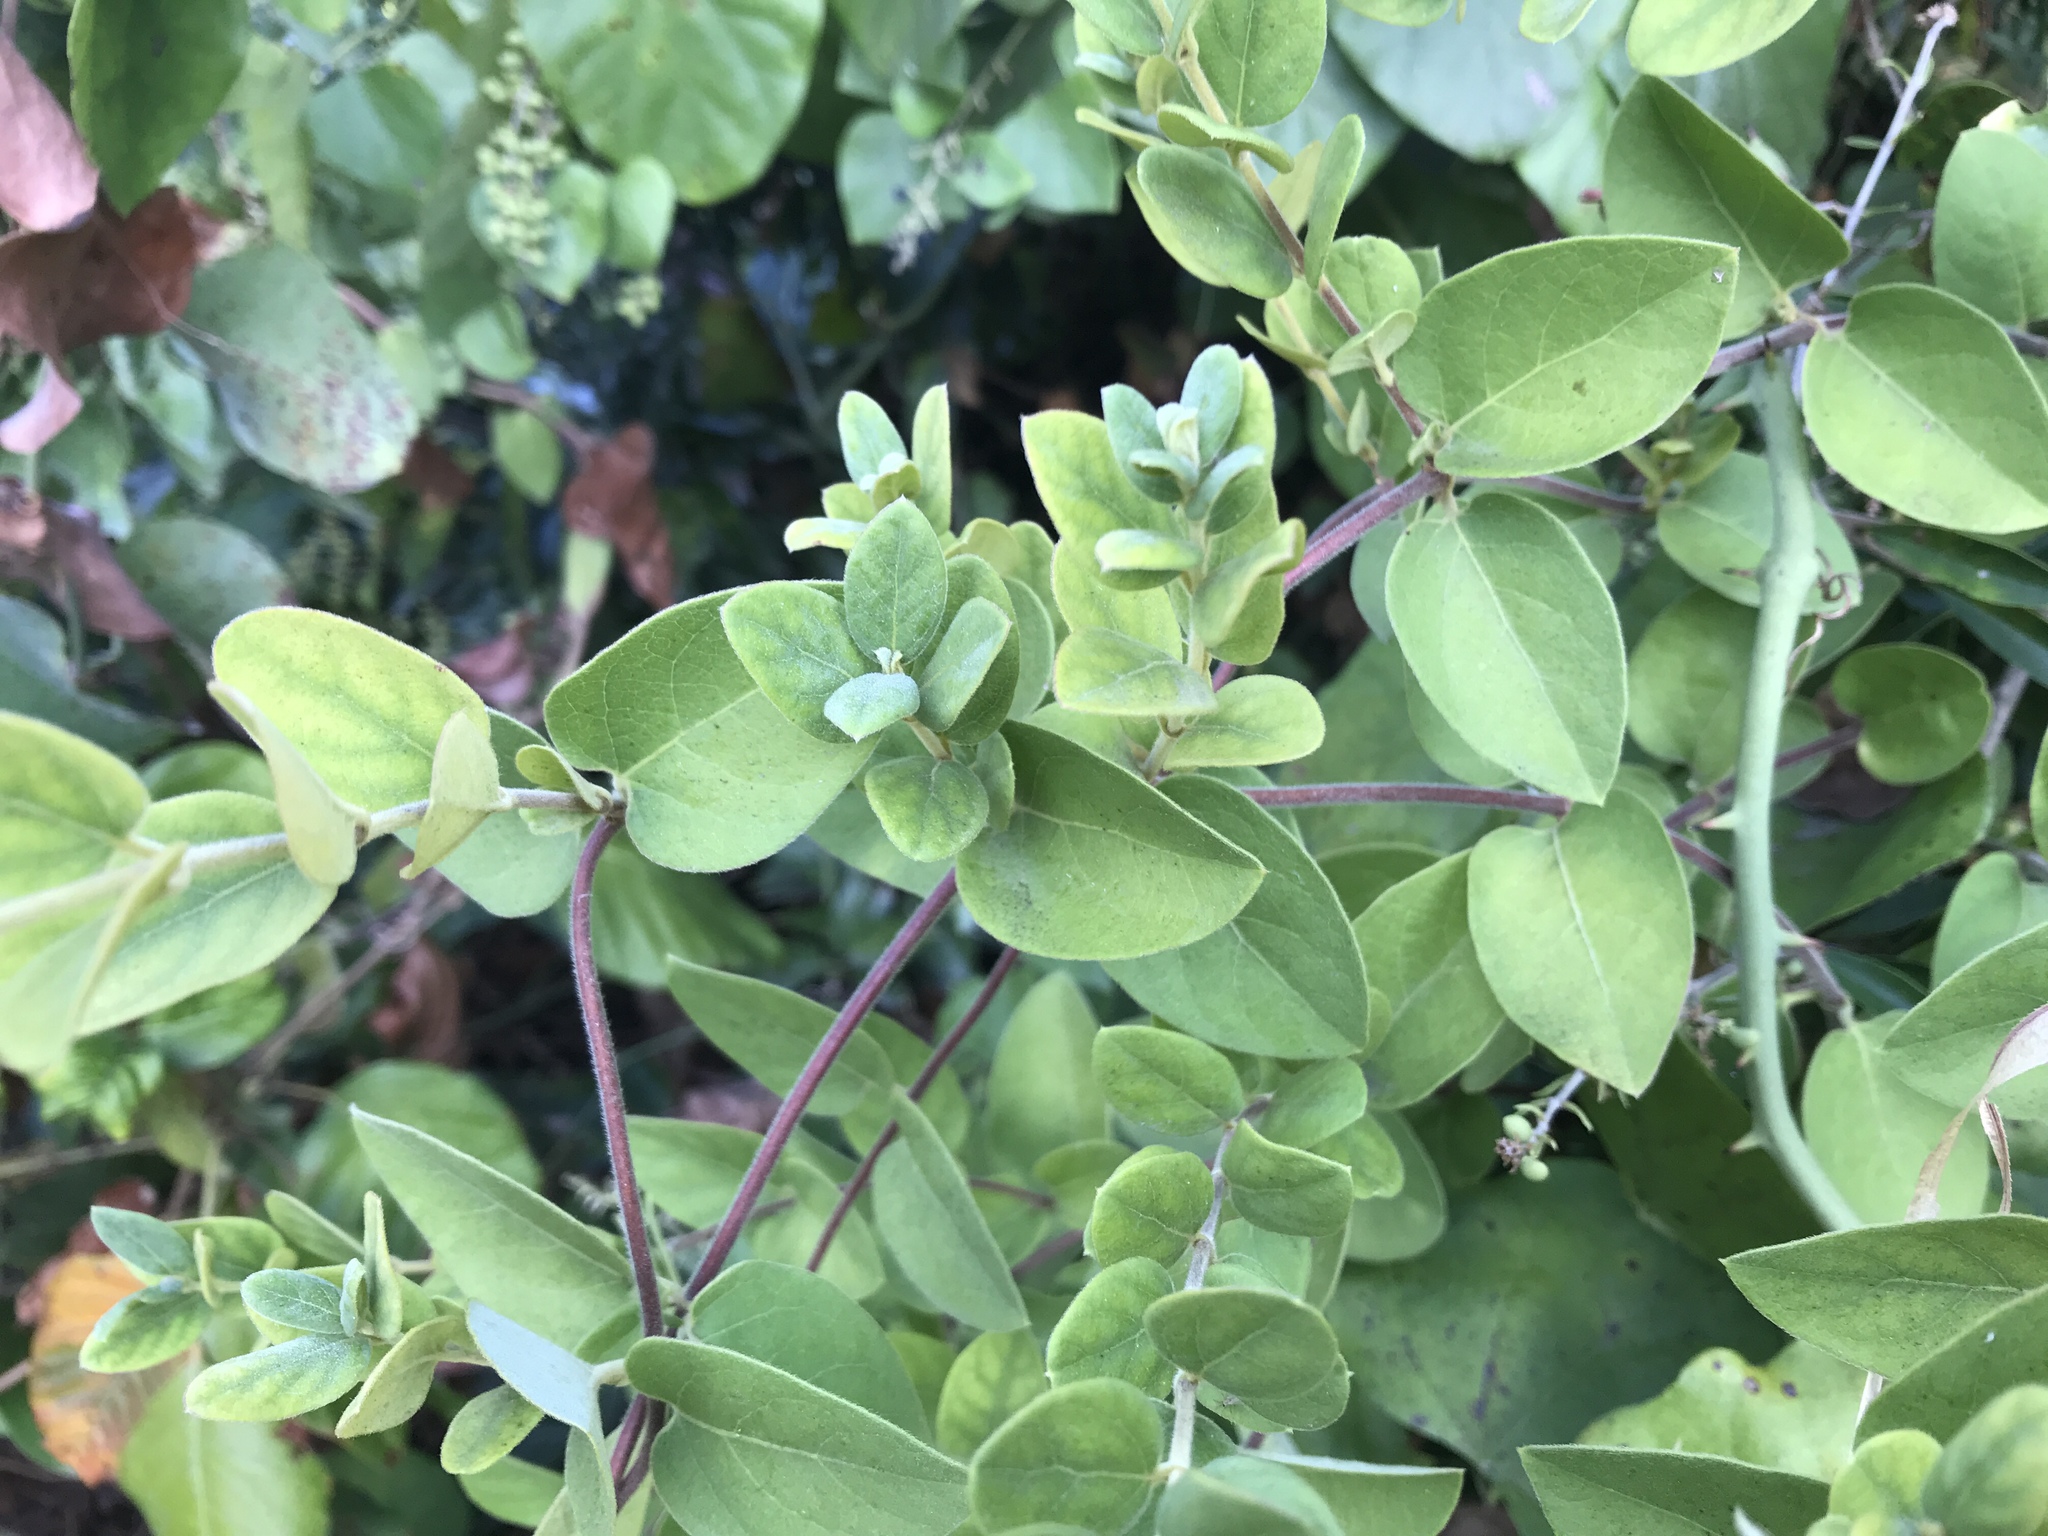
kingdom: Plantae
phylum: Tracheophyta
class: Magnoliopsida
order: Dipsacales
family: Caprifoliaceae
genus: Lonicera
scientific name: Lonicera japonica
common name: Japanese honeysuckle
